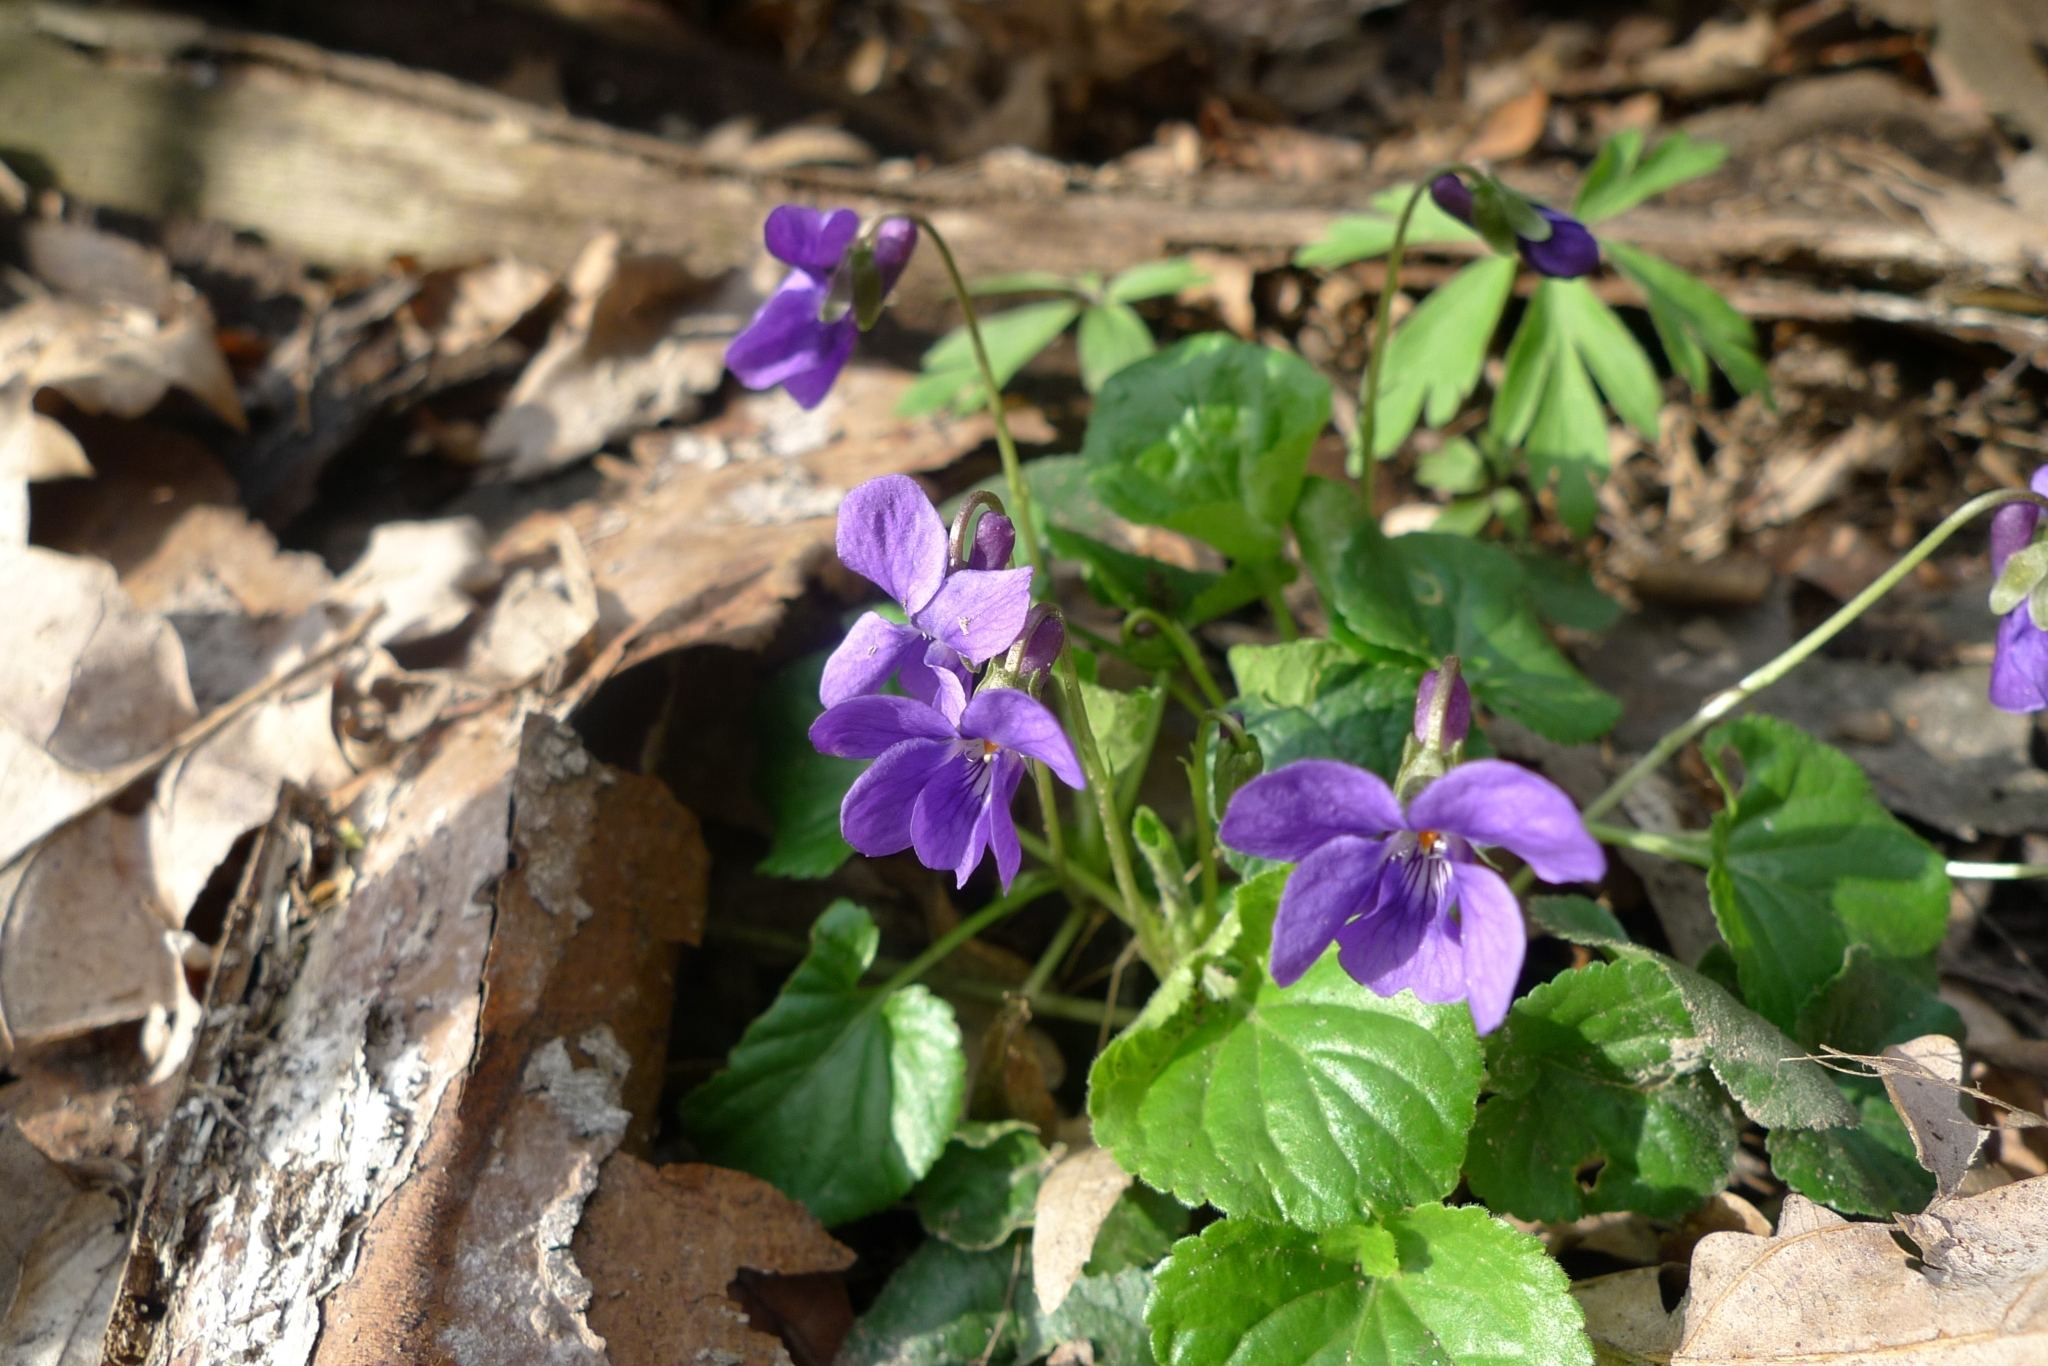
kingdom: Plantae
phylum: Tracheophyta
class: Magnoliopsida
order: Malpighiales
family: Violaceae
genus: Viola
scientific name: Viola odorata
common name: Sweet violet
